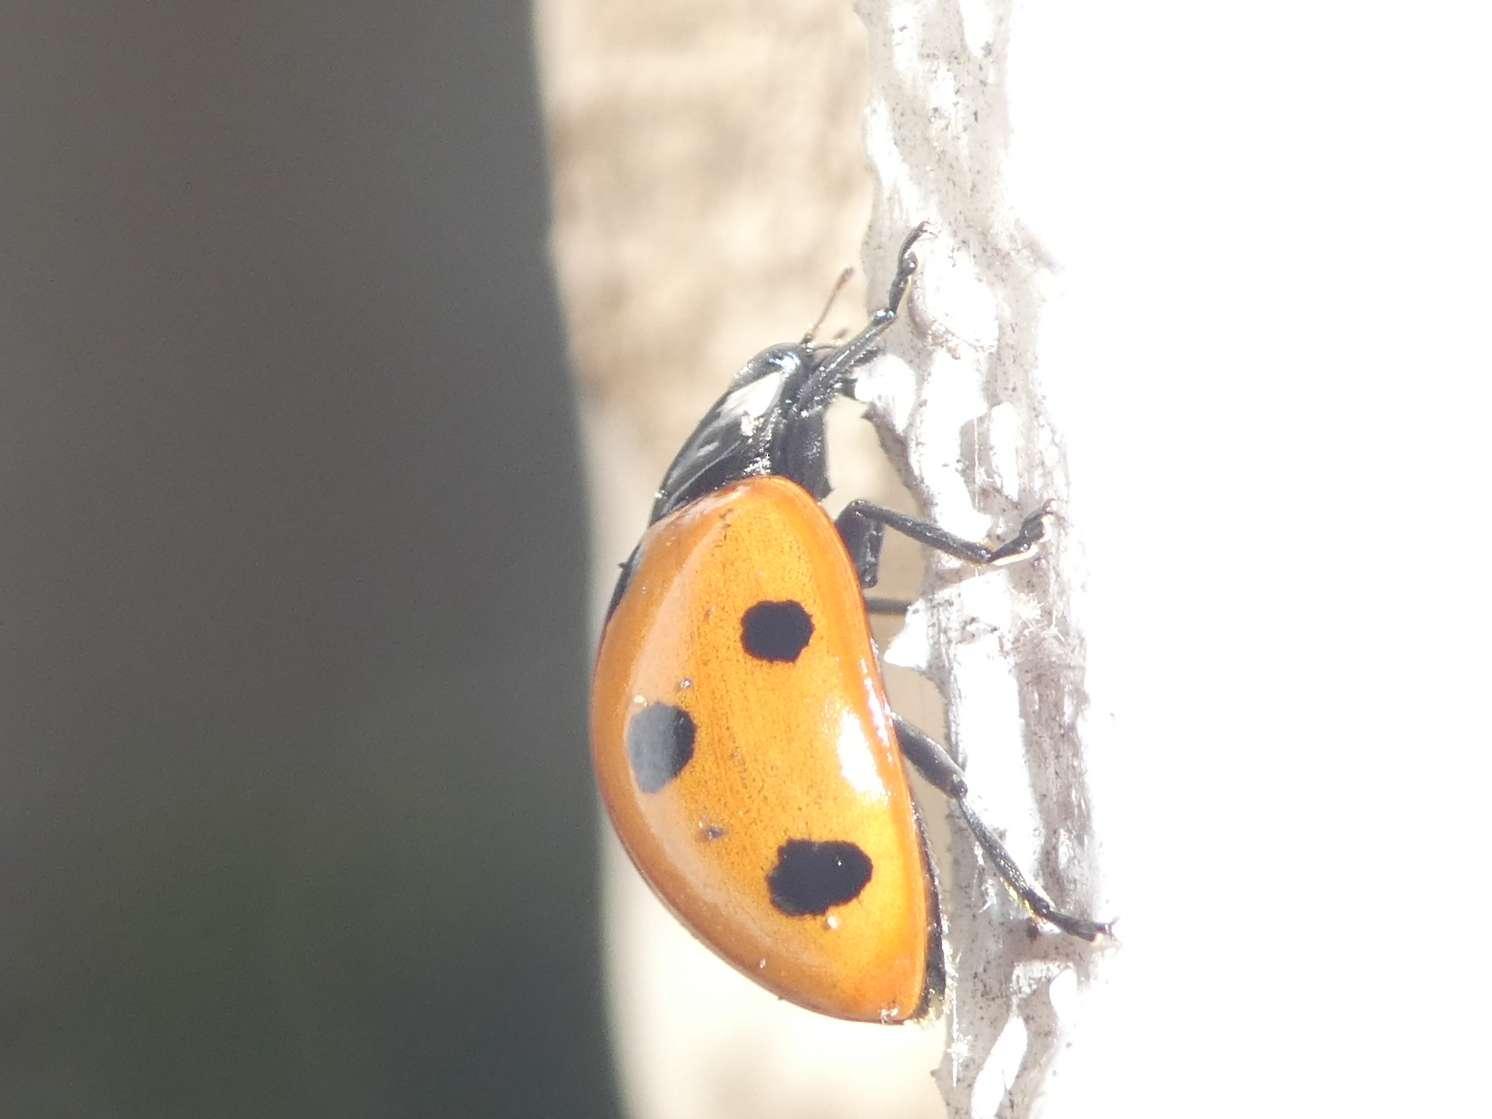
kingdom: Animalia
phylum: Arthropoda
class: Insecta
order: Coleoptera
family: Coccinellidae
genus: Coccinella
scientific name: Coccinella septempunctata
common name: Sevenspotted lady beetle
